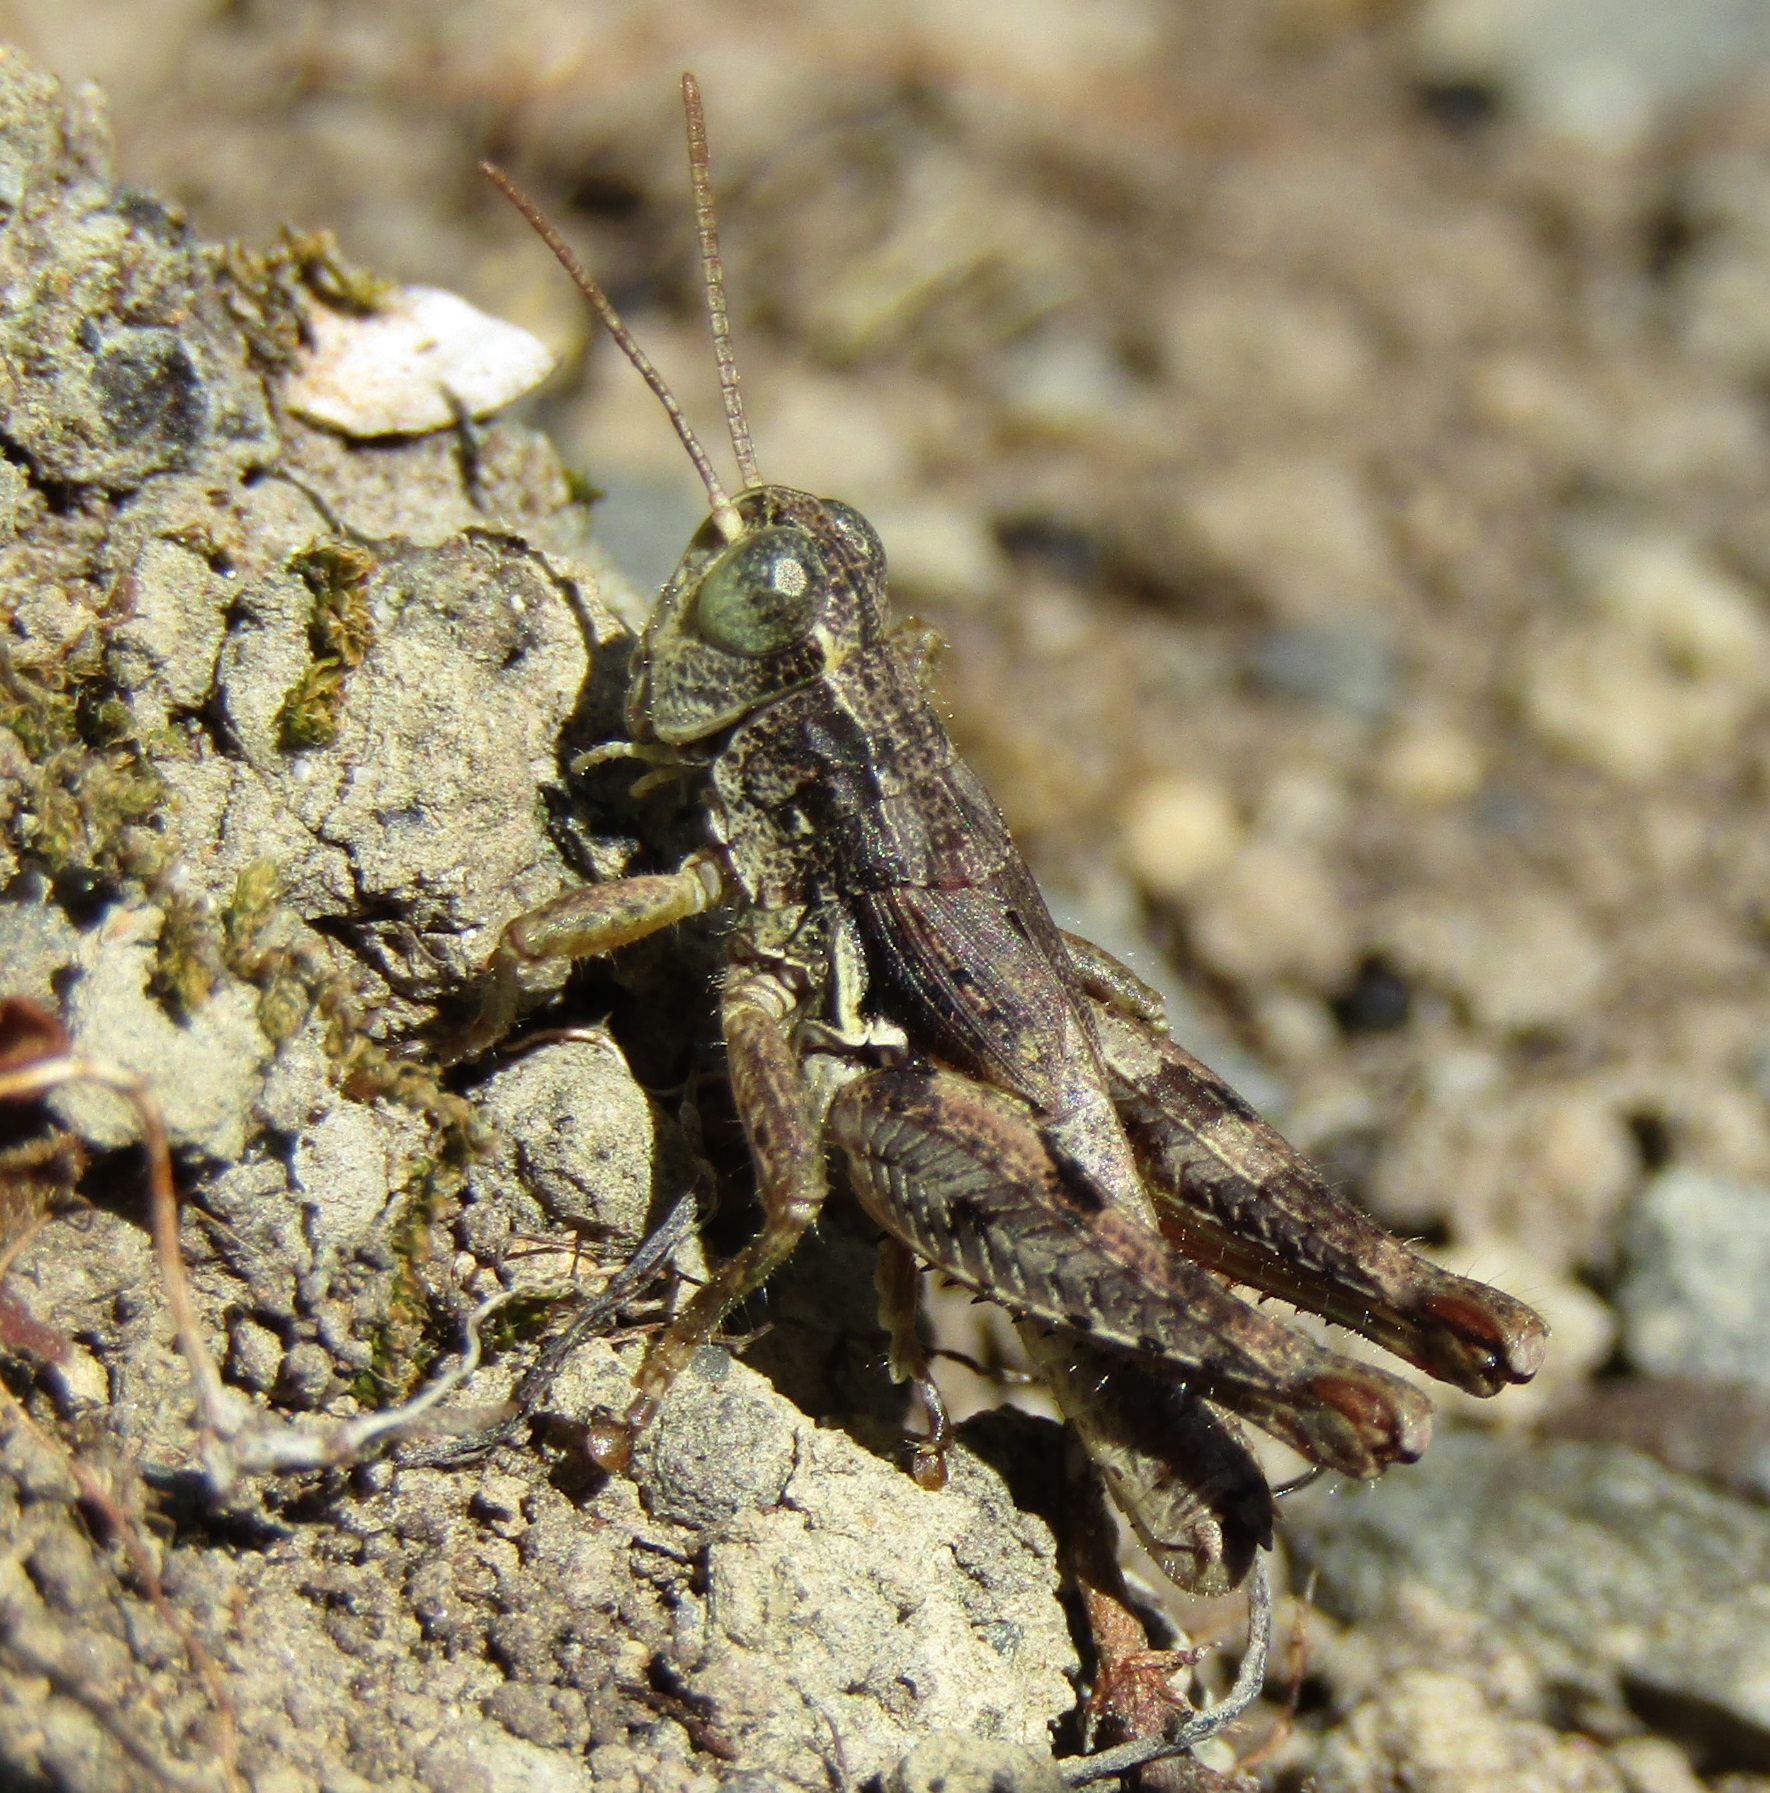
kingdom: Animalia
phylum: Arthropoda
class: Insecta
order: Orthoptera
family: Acrididae
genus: Phaulacridium
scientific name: Phaulacridium marginale
